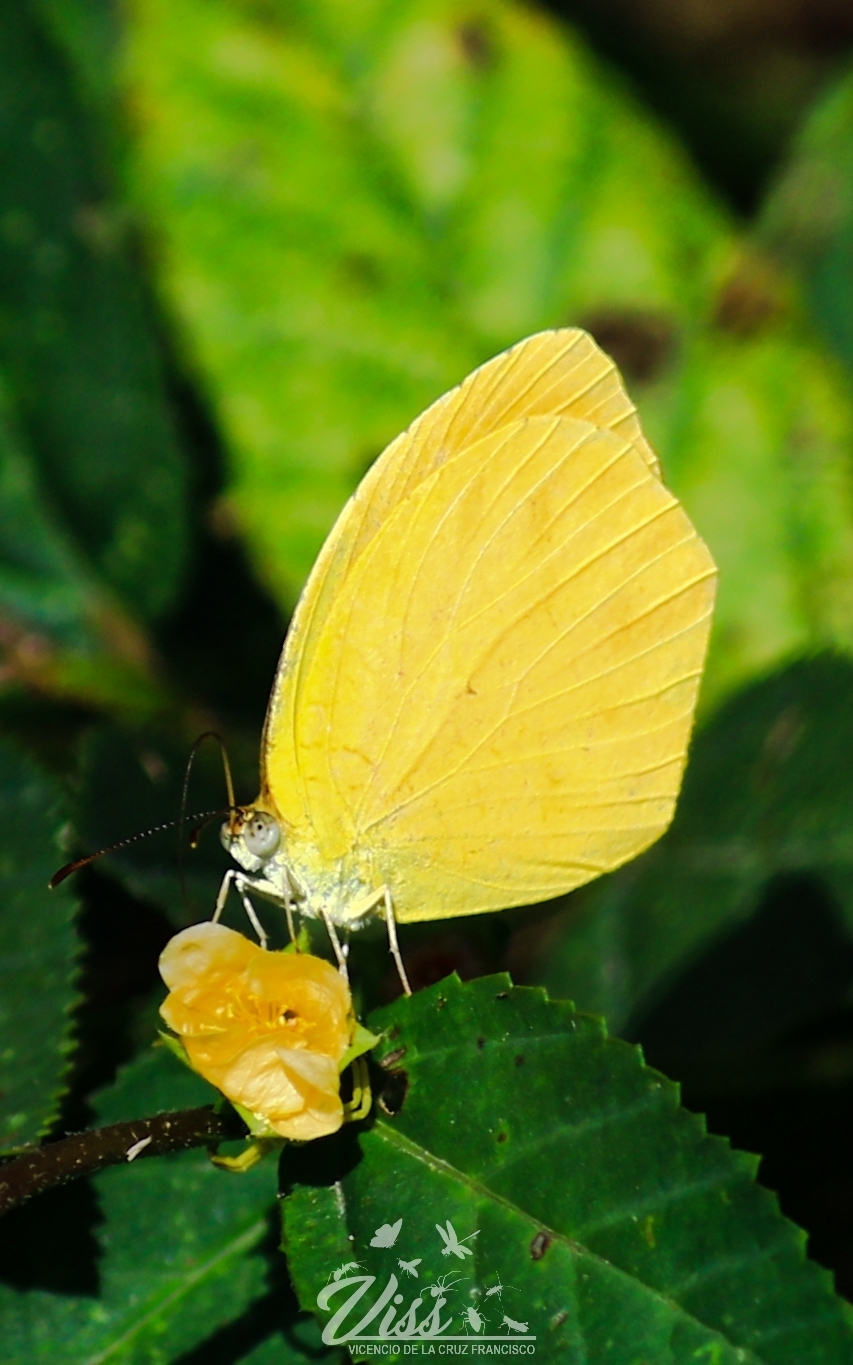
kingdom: Animalia
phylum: Arthropoda
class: Insecta
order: Lepidoptera
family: Pieridae
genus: Pyrisitia
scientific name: Pyrisitia proterpia
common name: Tailed orange
